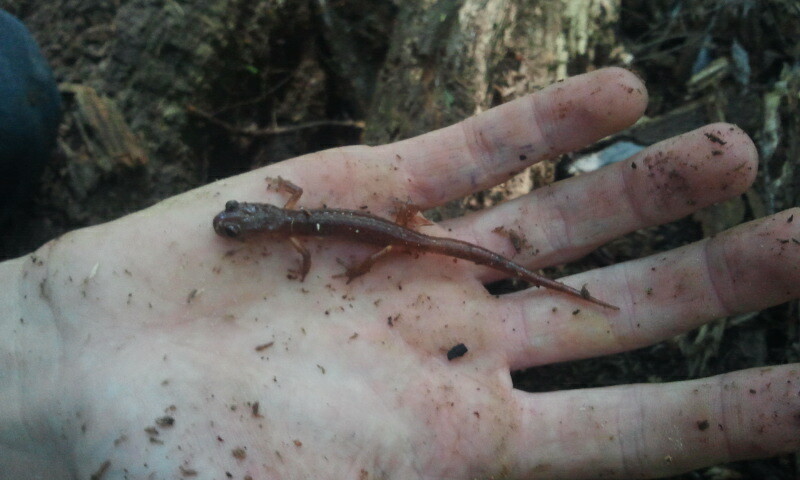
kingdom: Animalia
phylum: Chordata
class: Amphibia
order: Caudata
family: Plethodontidae
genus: Ensatina
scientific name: Ensatina eschscholtzii
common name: Ensatina
